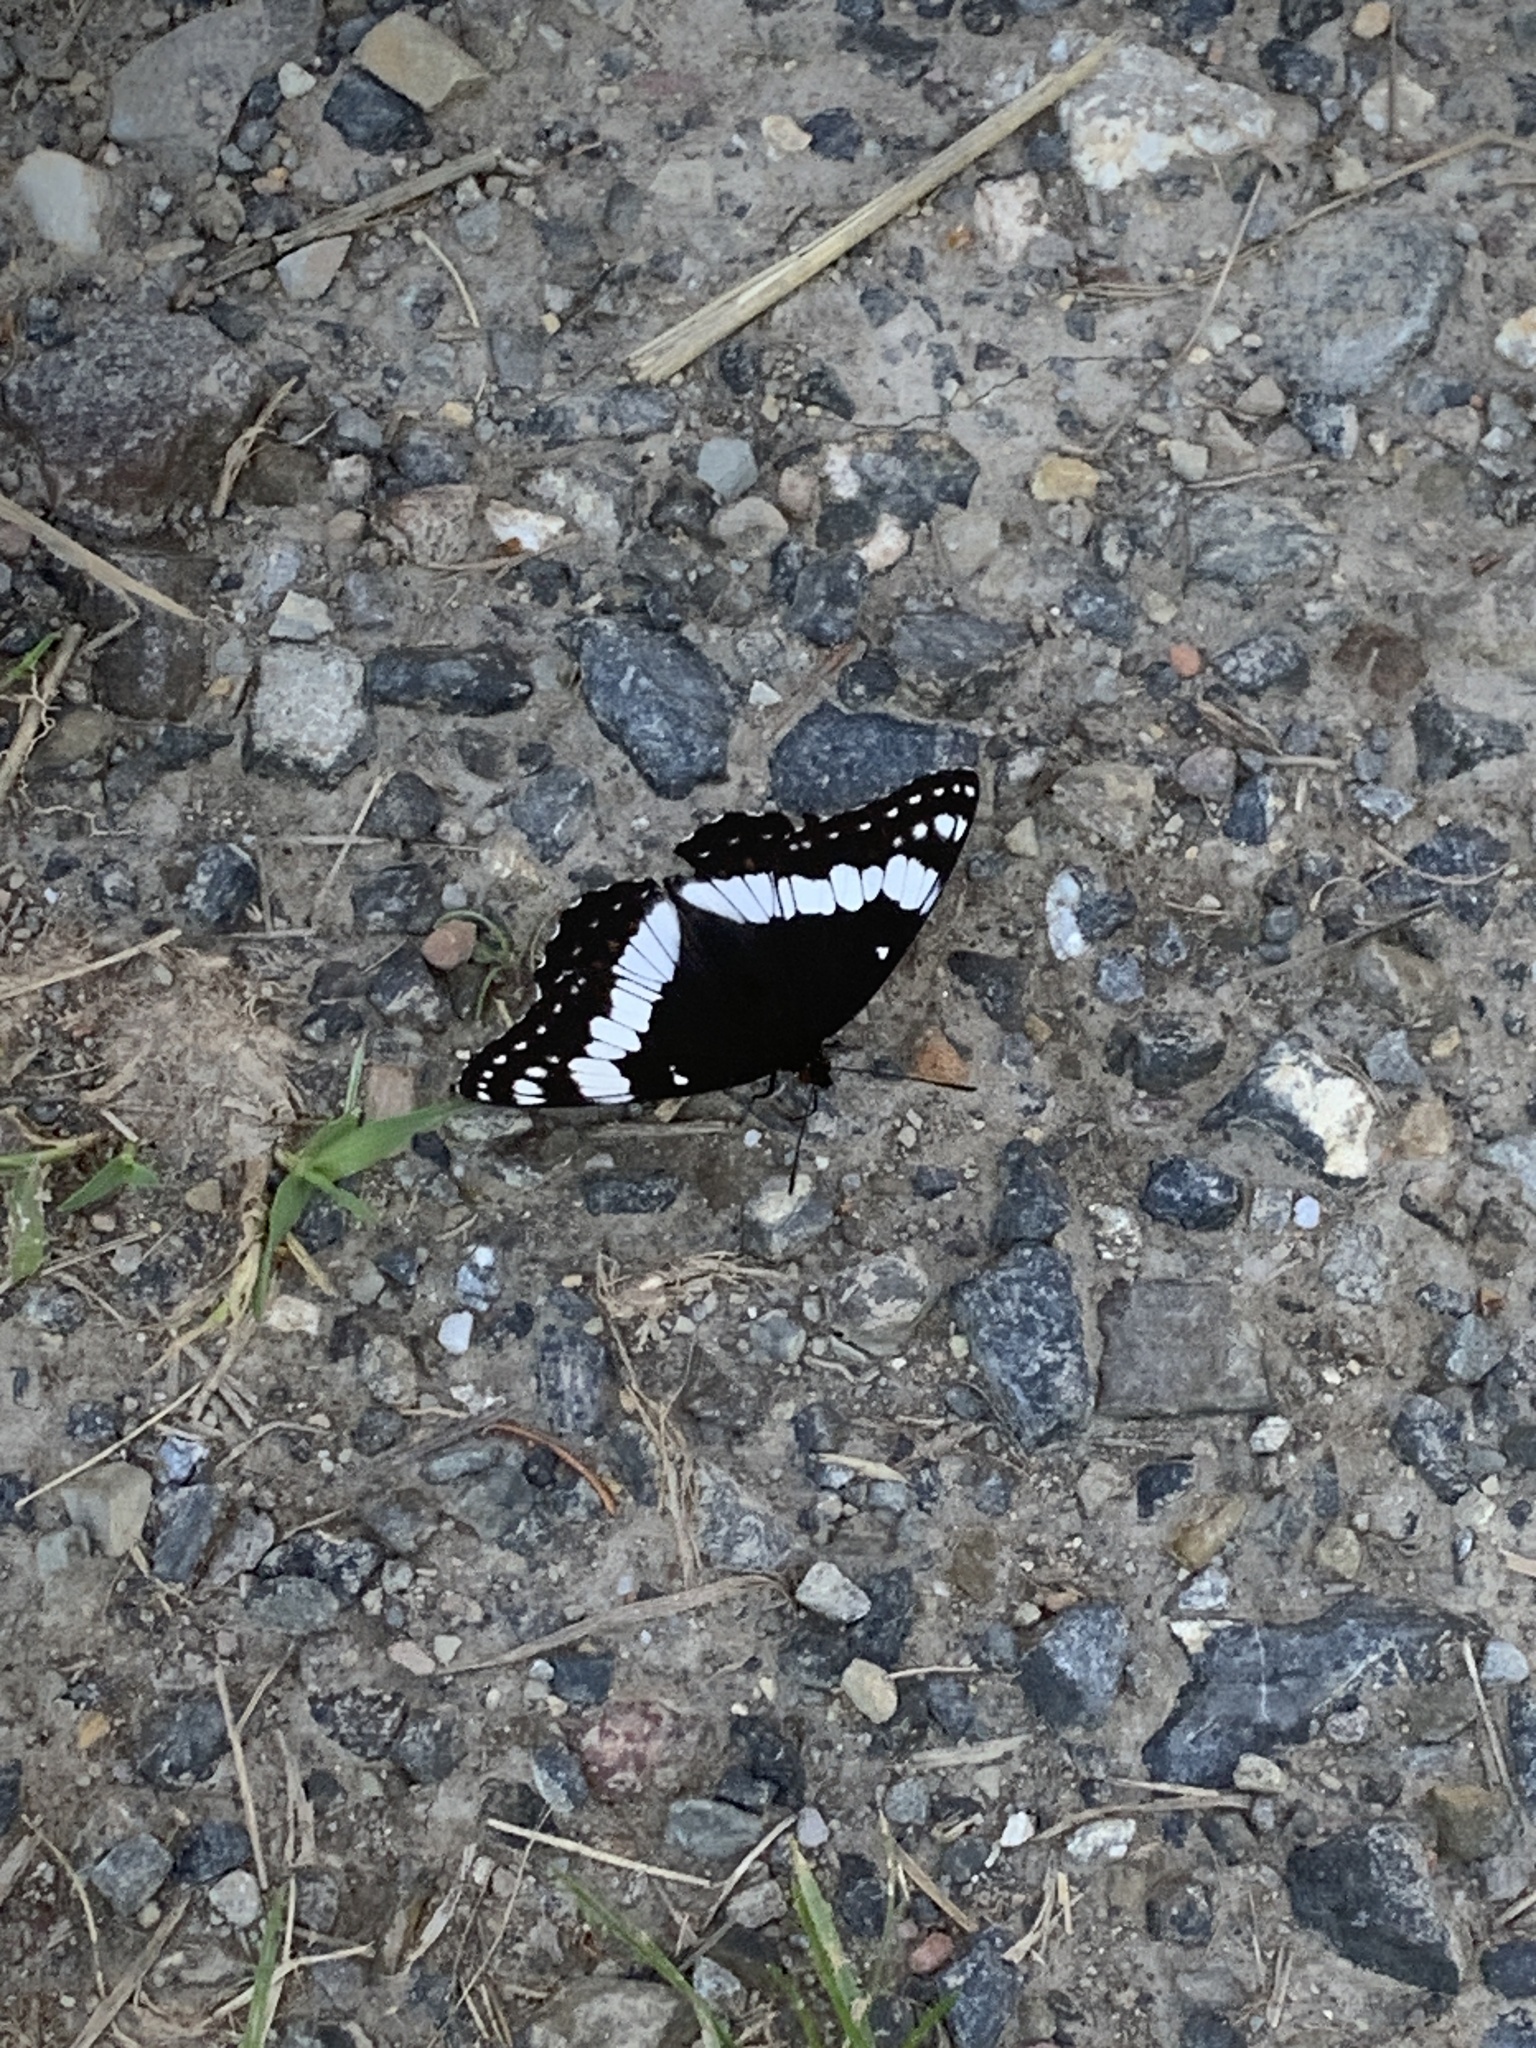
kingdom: Animalia
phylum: Arthropoda
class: Insecta
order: Lepidoptera
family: Nymphalidae
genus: Limenitis
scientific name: Limenitis weidemeyerii
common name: Weidemeyer's admiral
